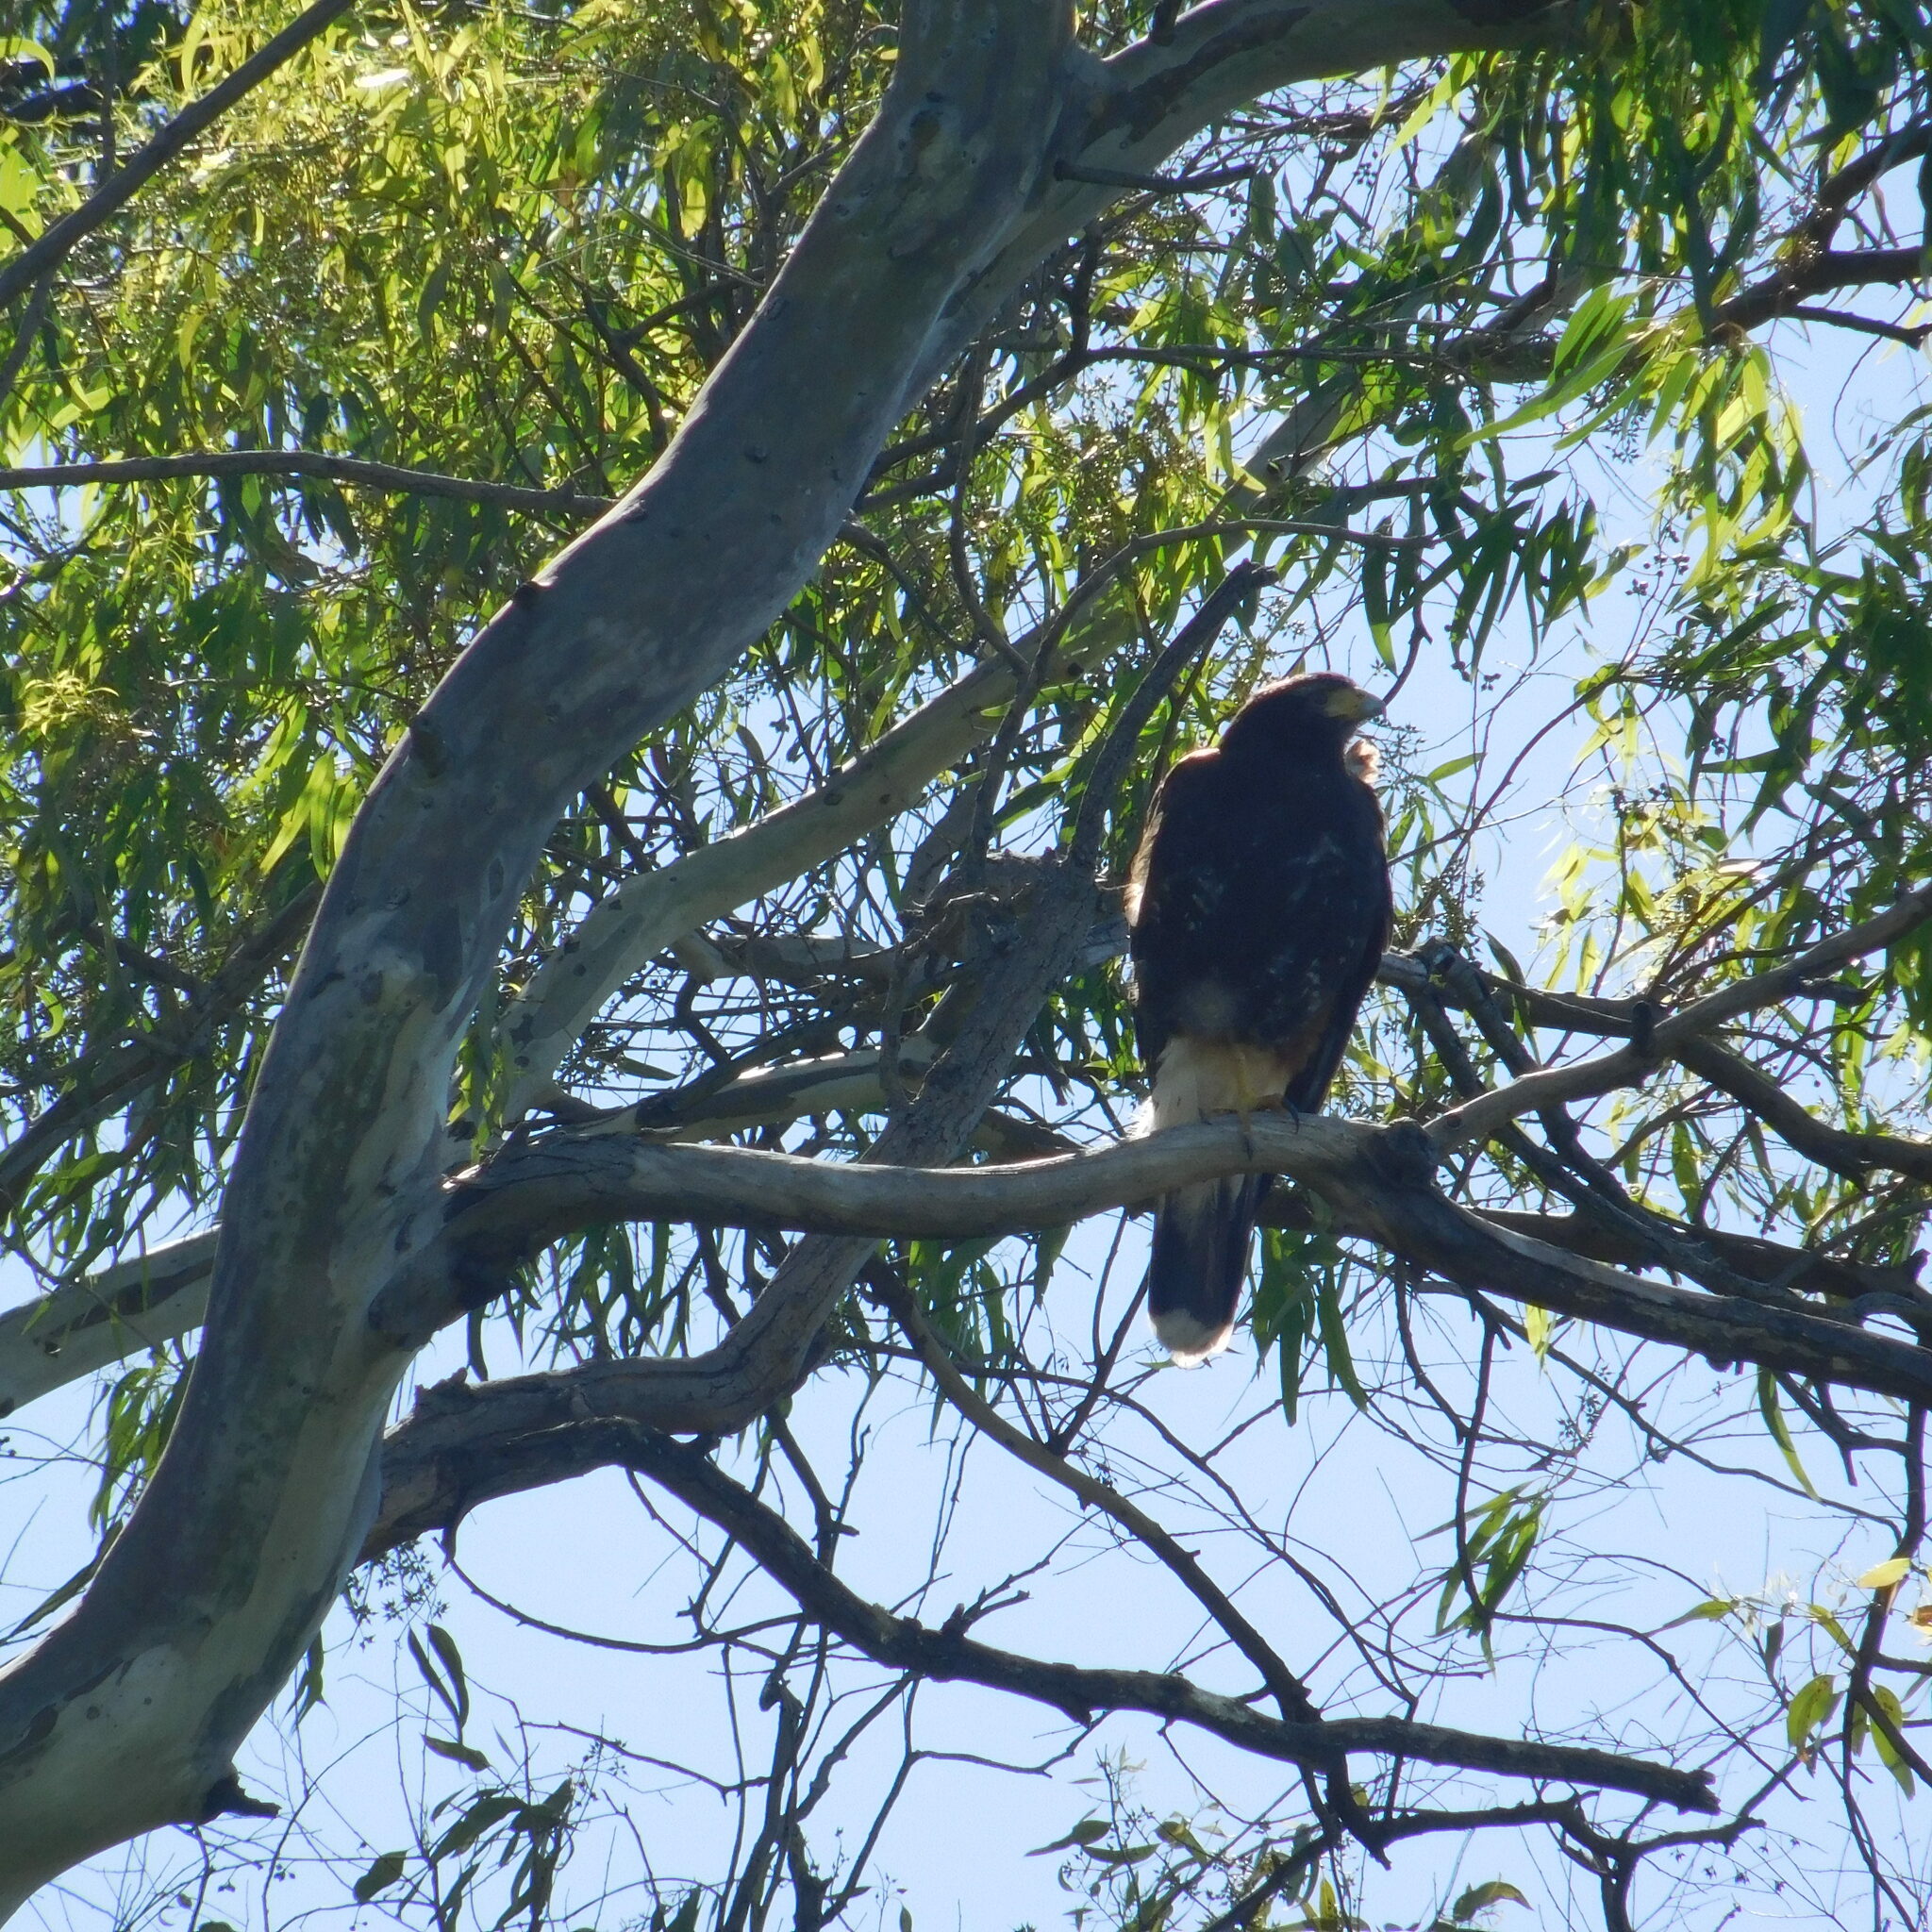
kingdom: Animalia
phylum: Chordata
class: Aves
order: Accipitriformes
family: Accipitridae
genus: Parabuteo
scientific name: Parabuteo unicinctus
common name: Harris's hawk
